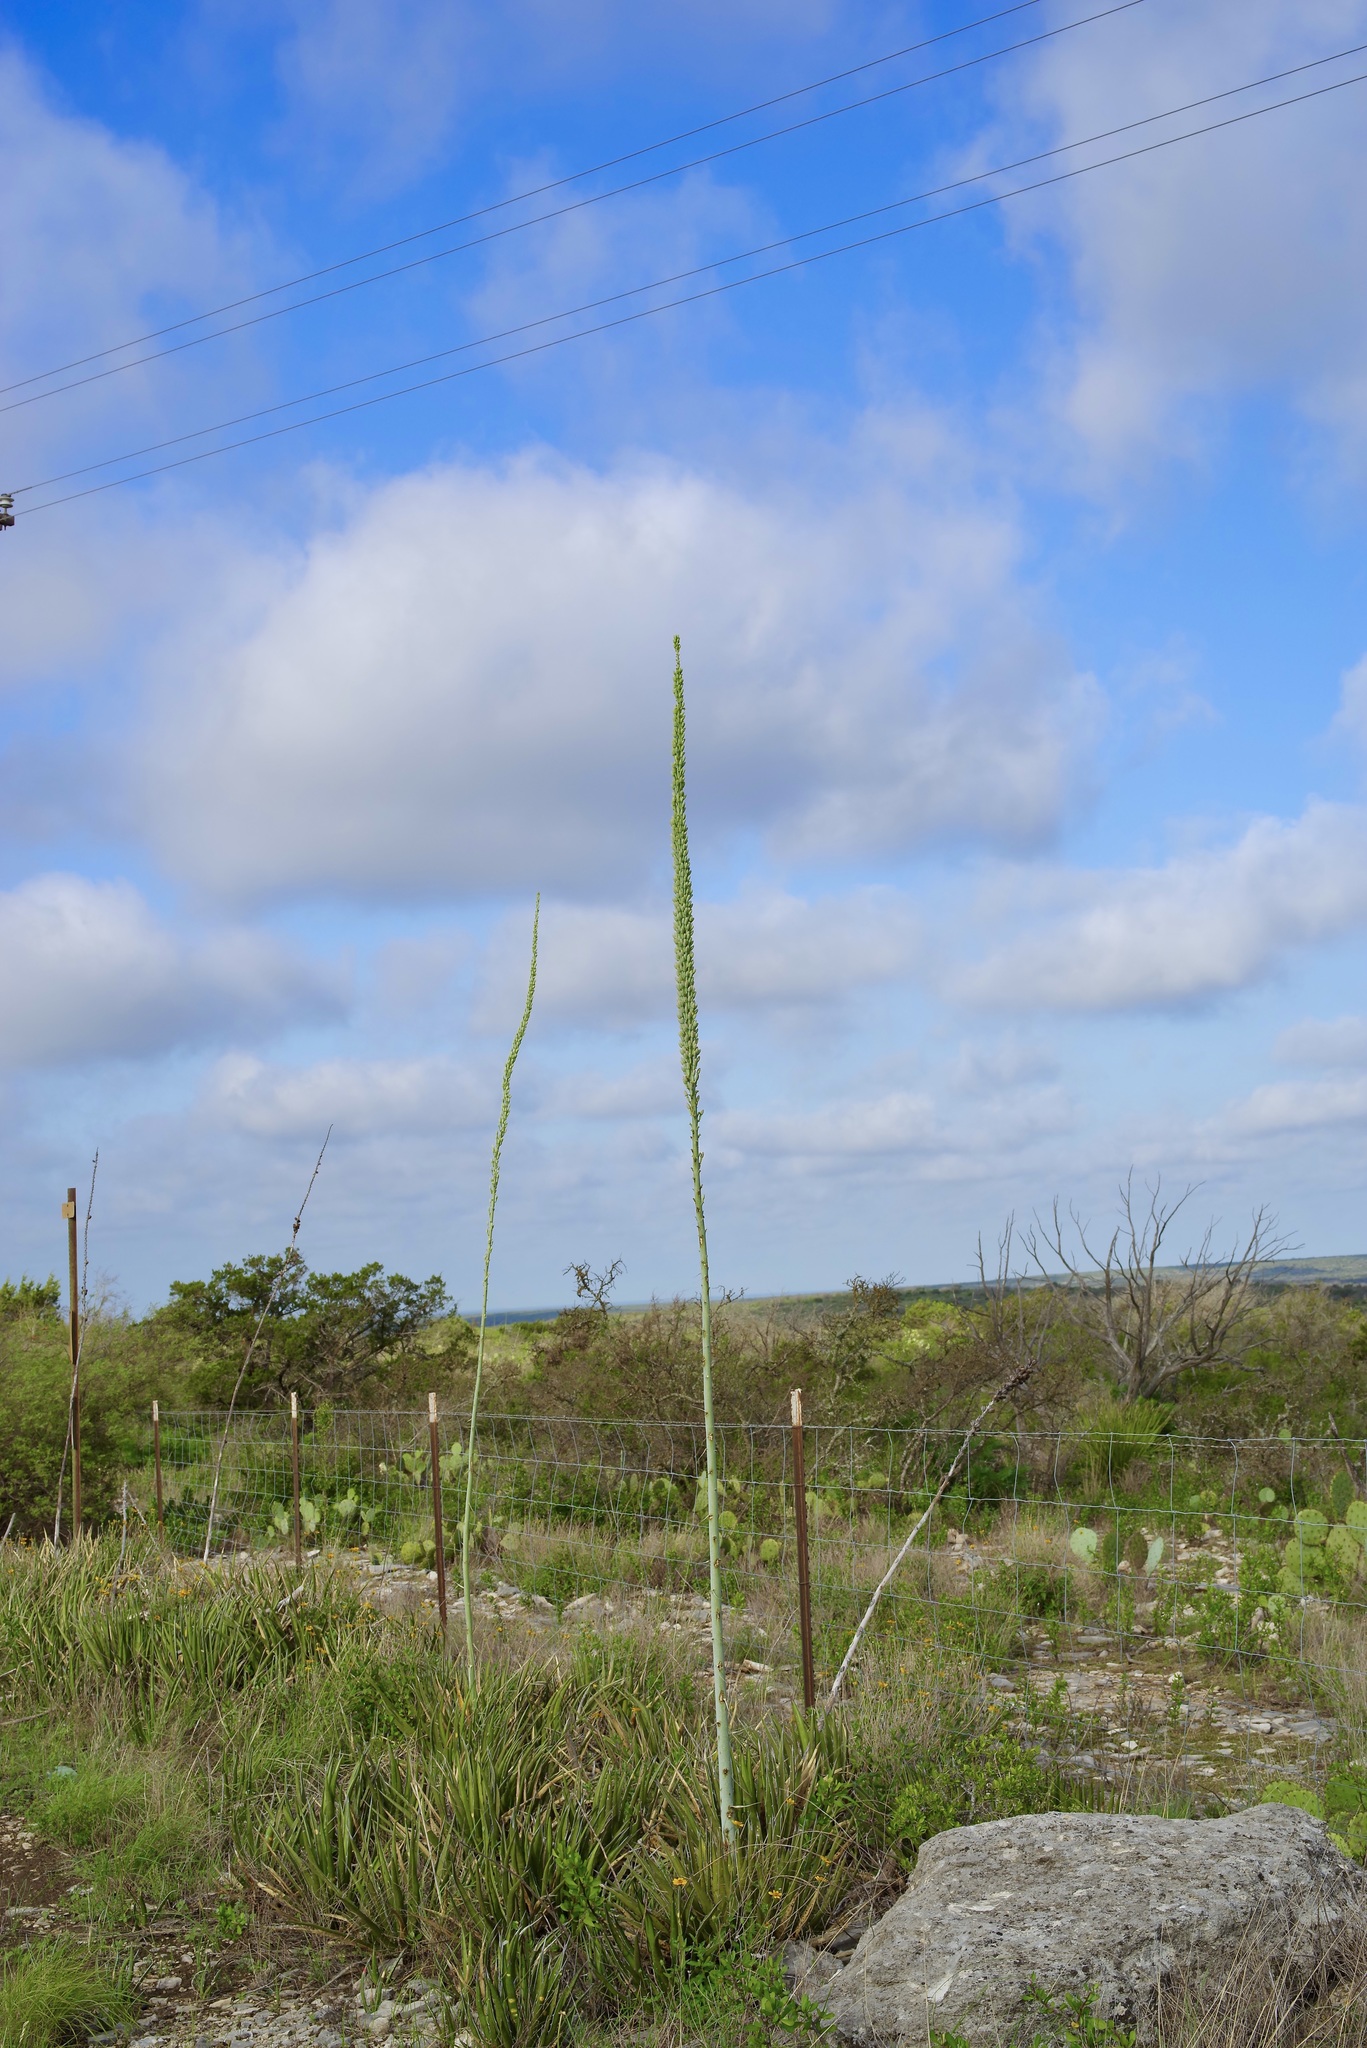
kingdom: Plantae
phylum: Tracheophyta
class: Liliopsida
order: Asparagales
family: Asparagaceae
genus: Agave
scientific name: Agave lechuguilla
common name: Lecheguilla agave
